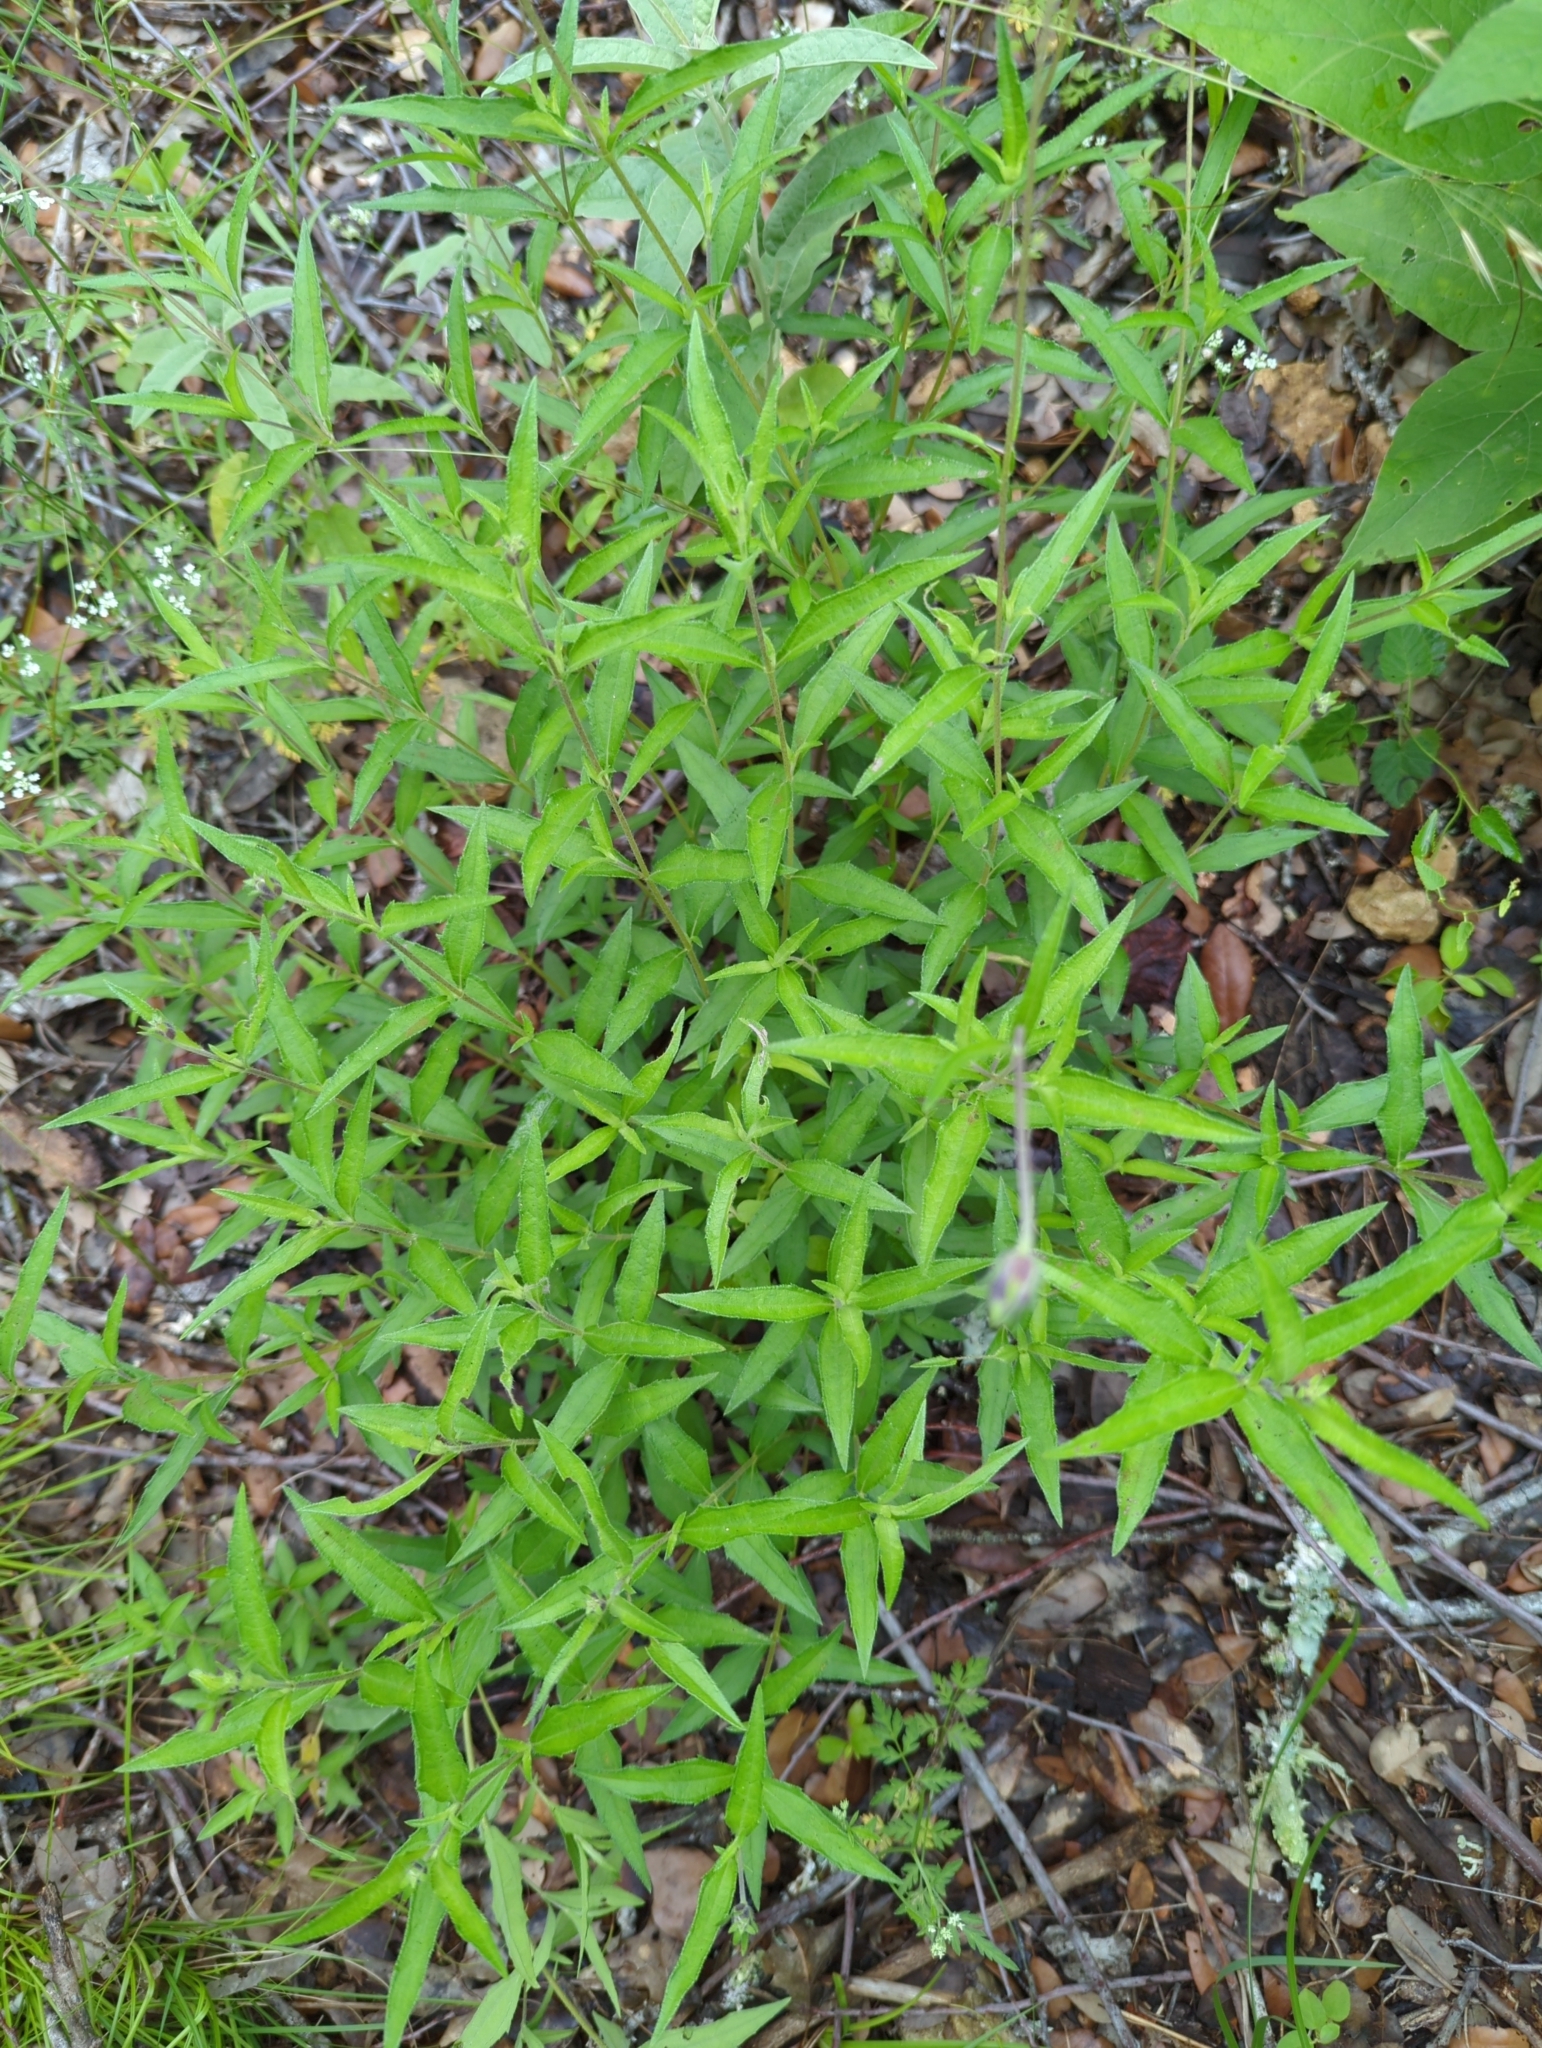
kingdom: Plantae
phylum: Tracheophyta
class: Magnoliopsida
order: Asterales
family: Asteraceae
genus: Wedelia
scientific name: Wedelia acapulcensis
